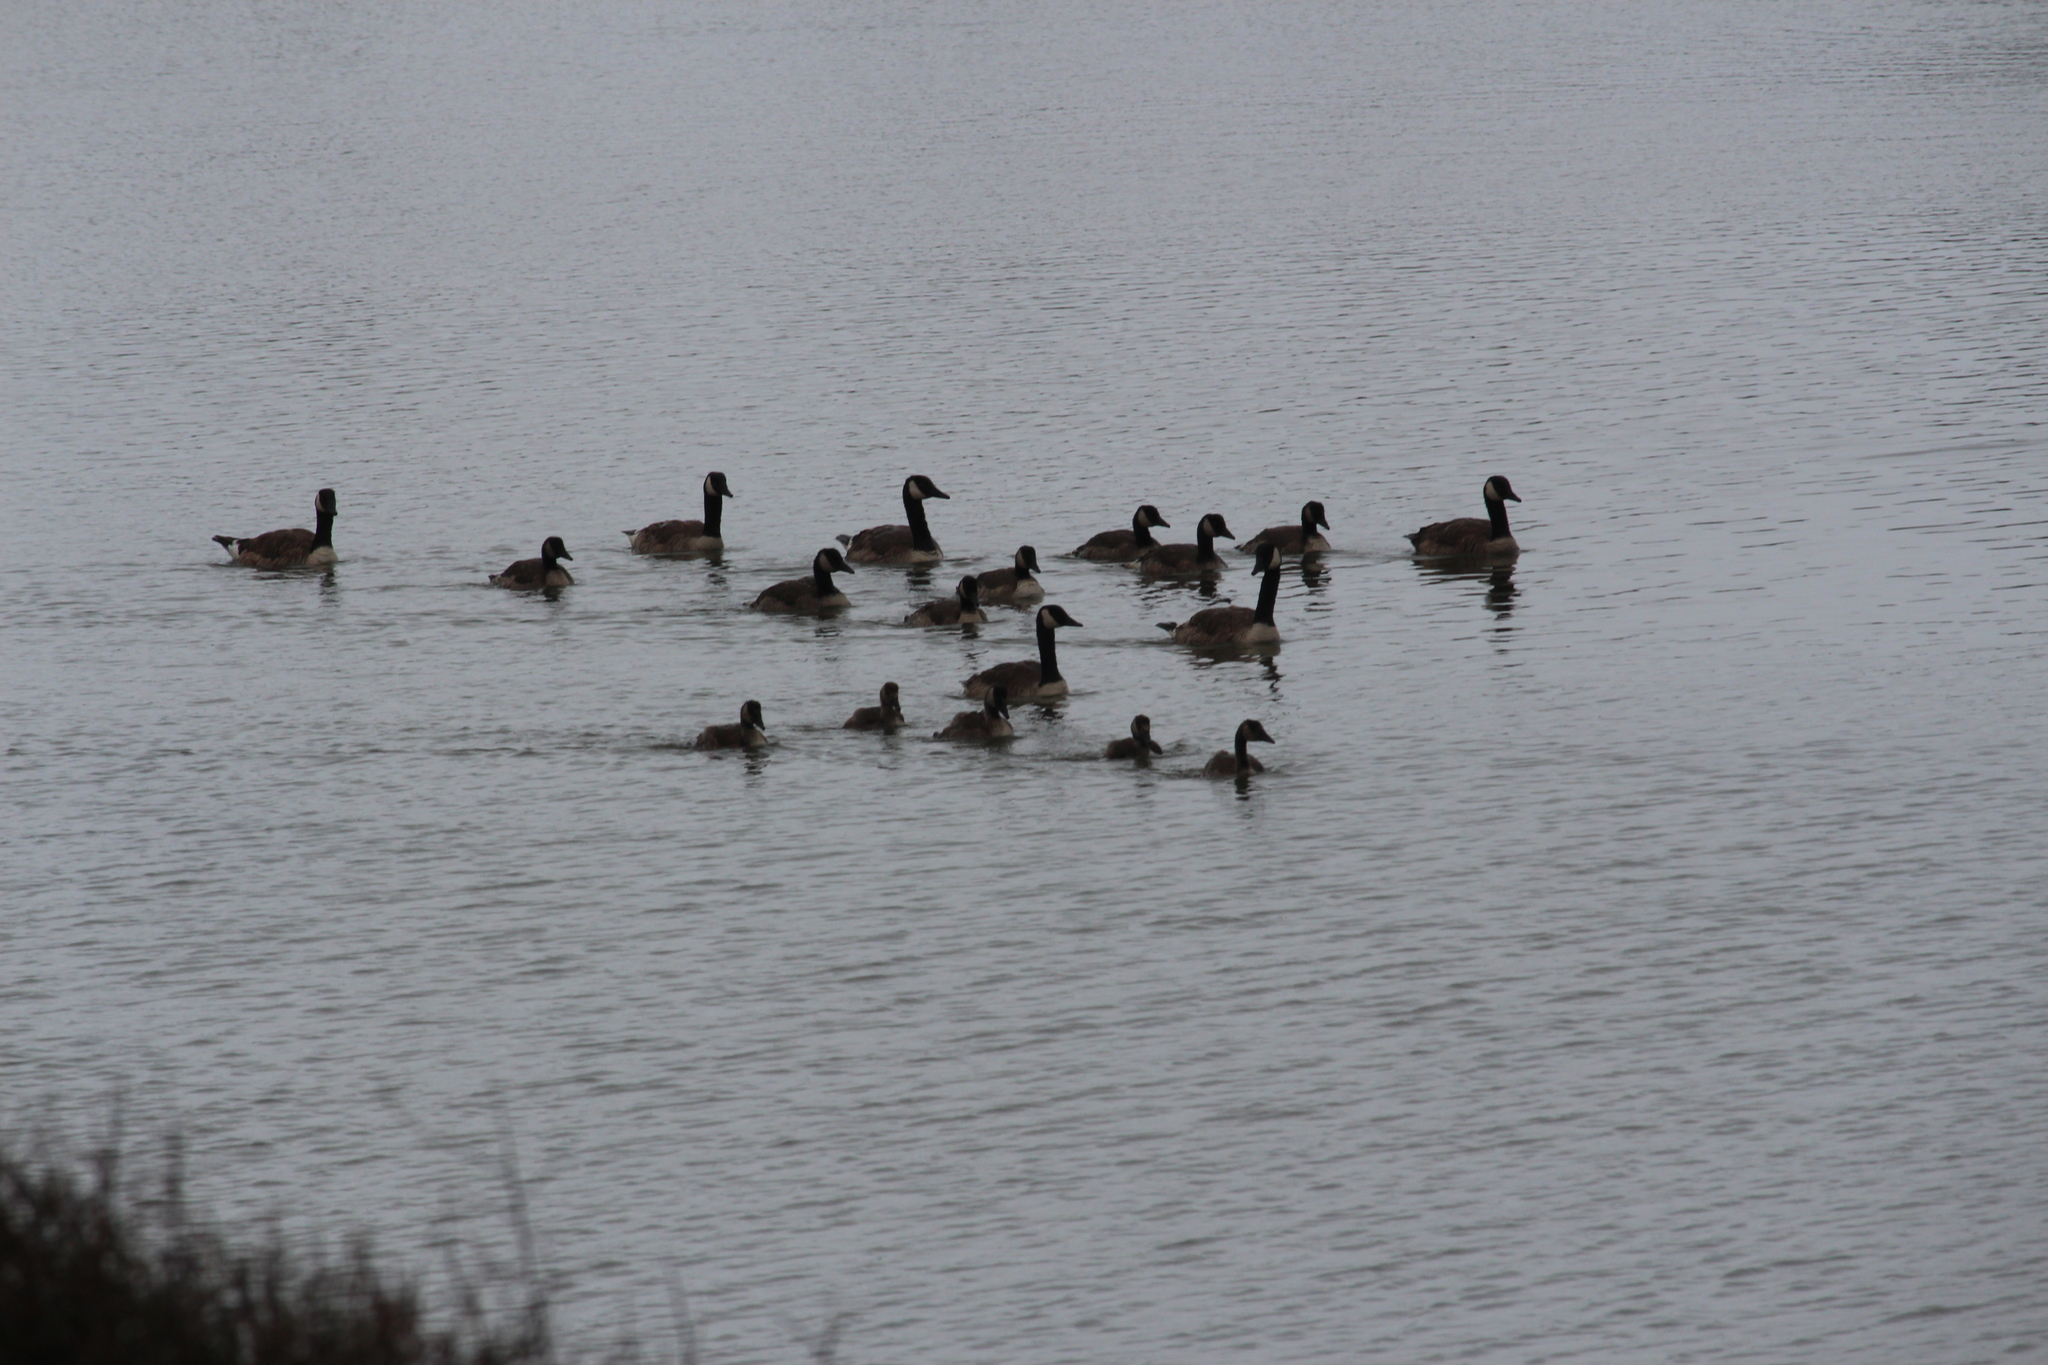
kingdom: Animalia
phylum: Chordata
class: Aves
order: Anseriformes
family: Anatidae
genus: Branta
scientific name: Branta canadensis
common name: Canada goose
